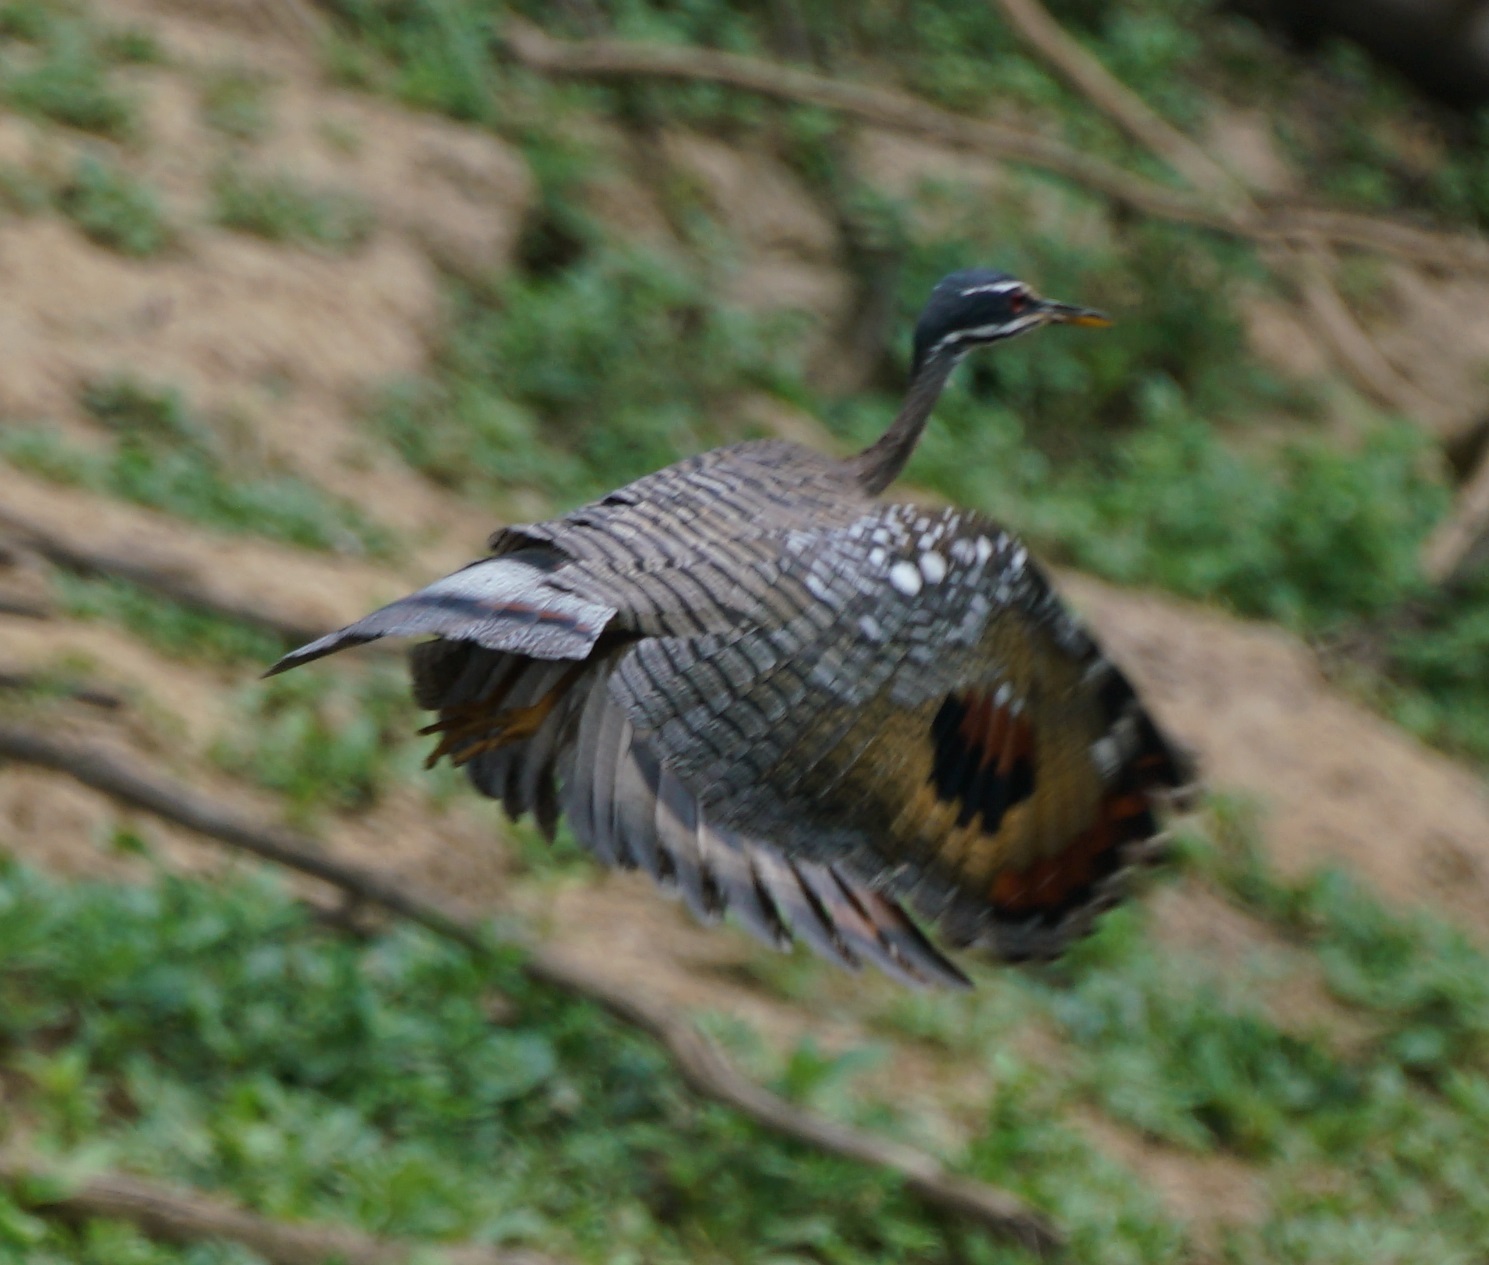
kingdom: Animalia
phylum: Chordata
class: Aves
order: Eurypygiformes
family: Eurypygidae
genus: Eurypyga
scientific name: Eurypyga helias
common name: Sunbittern
